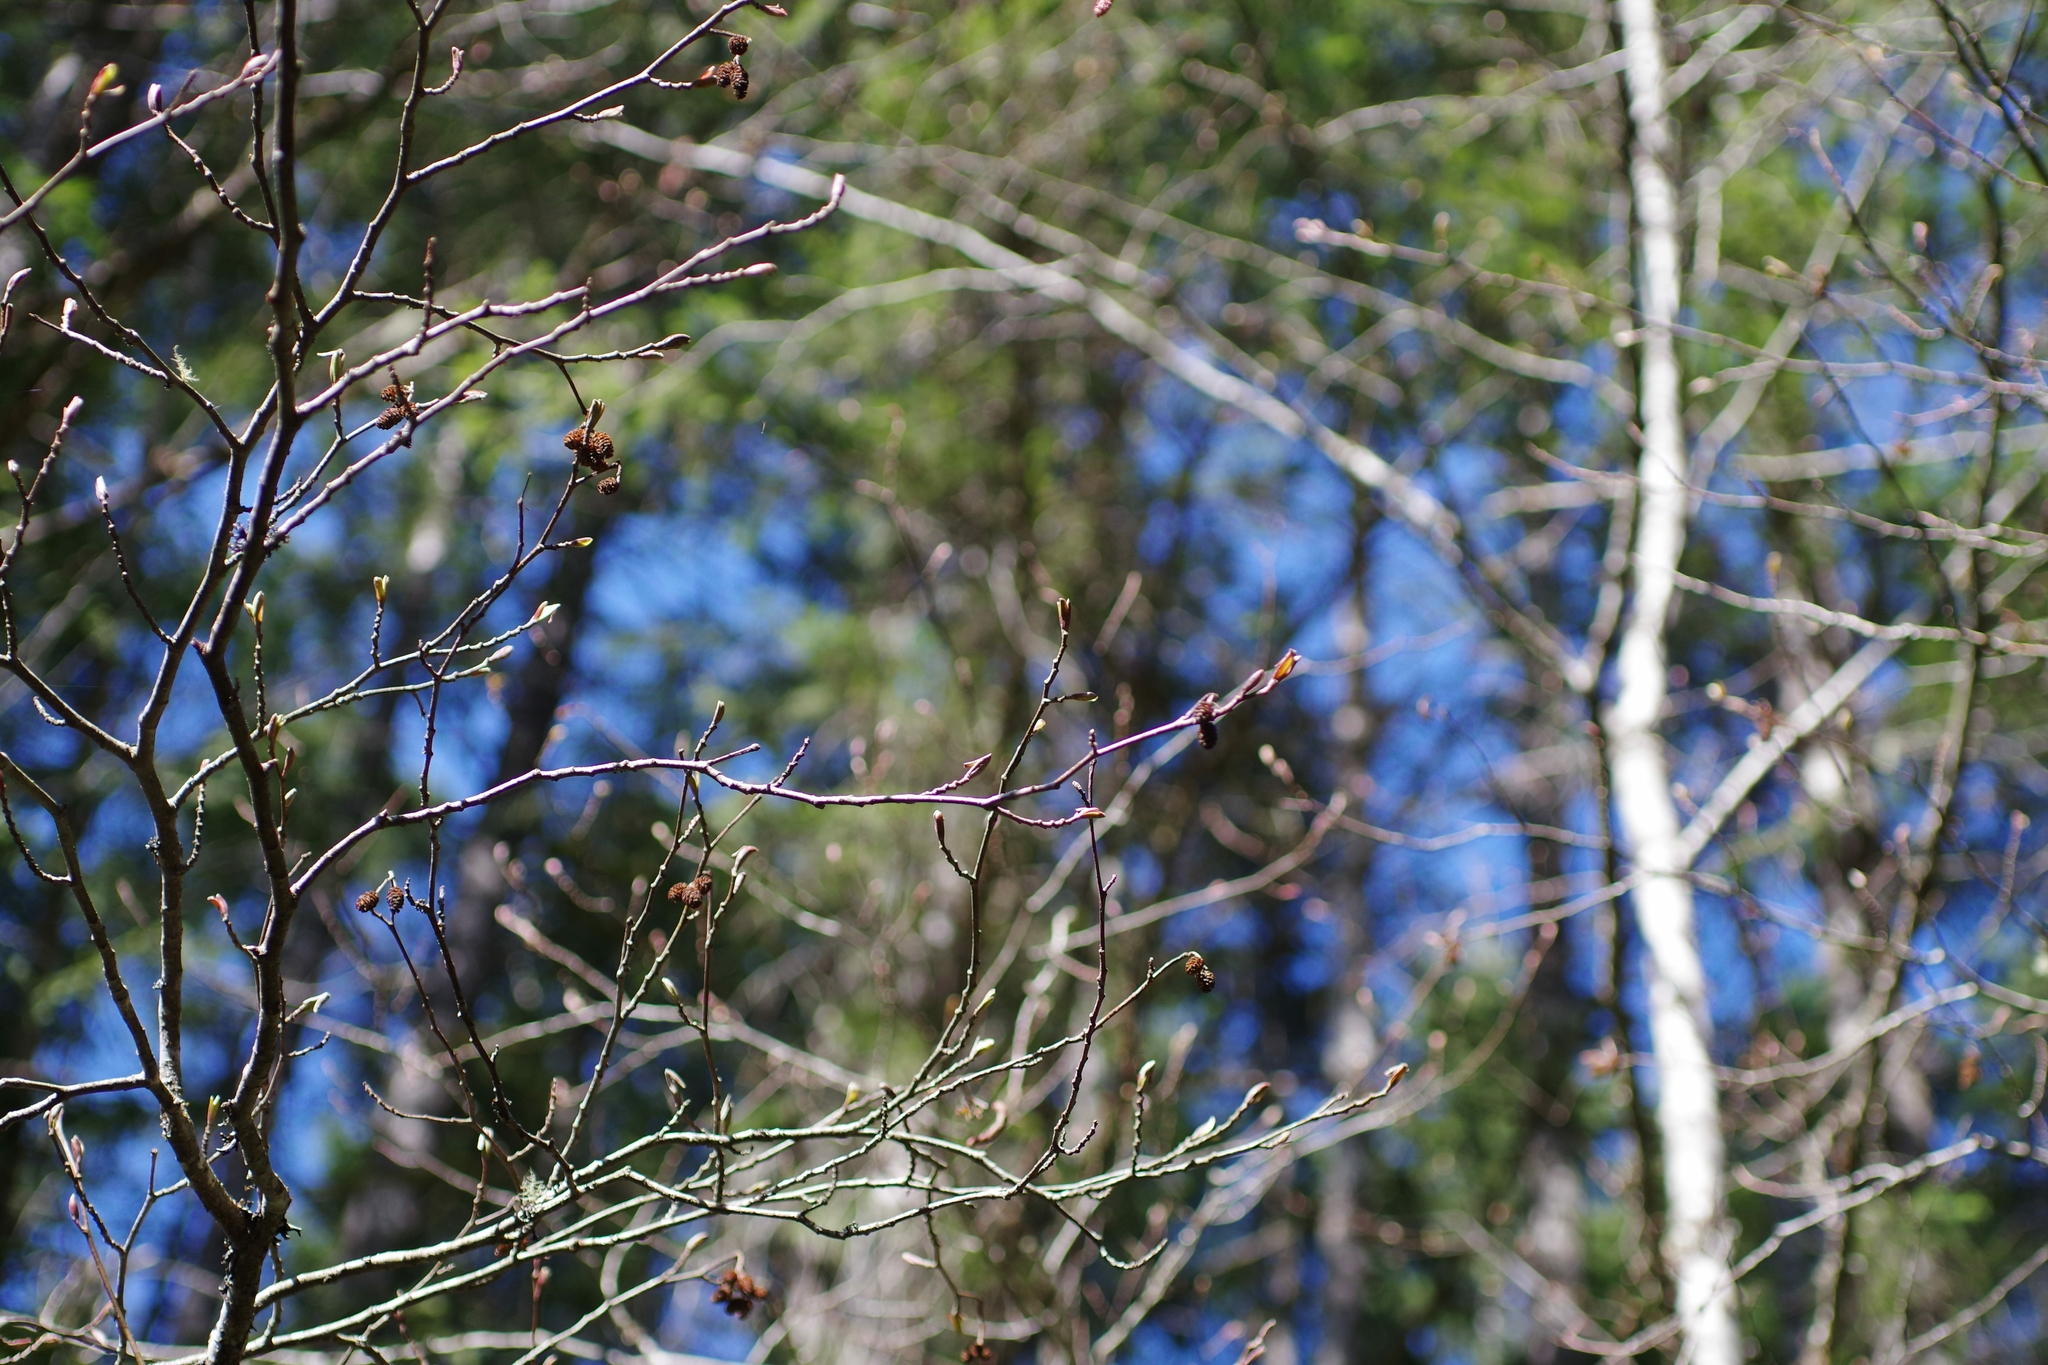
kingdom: Plantae
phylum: Tracheophyta
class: Magnoliopsida
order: Fagales
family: Betulaceae
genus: Alnus
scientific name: Alnus rubra
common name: Red alder
